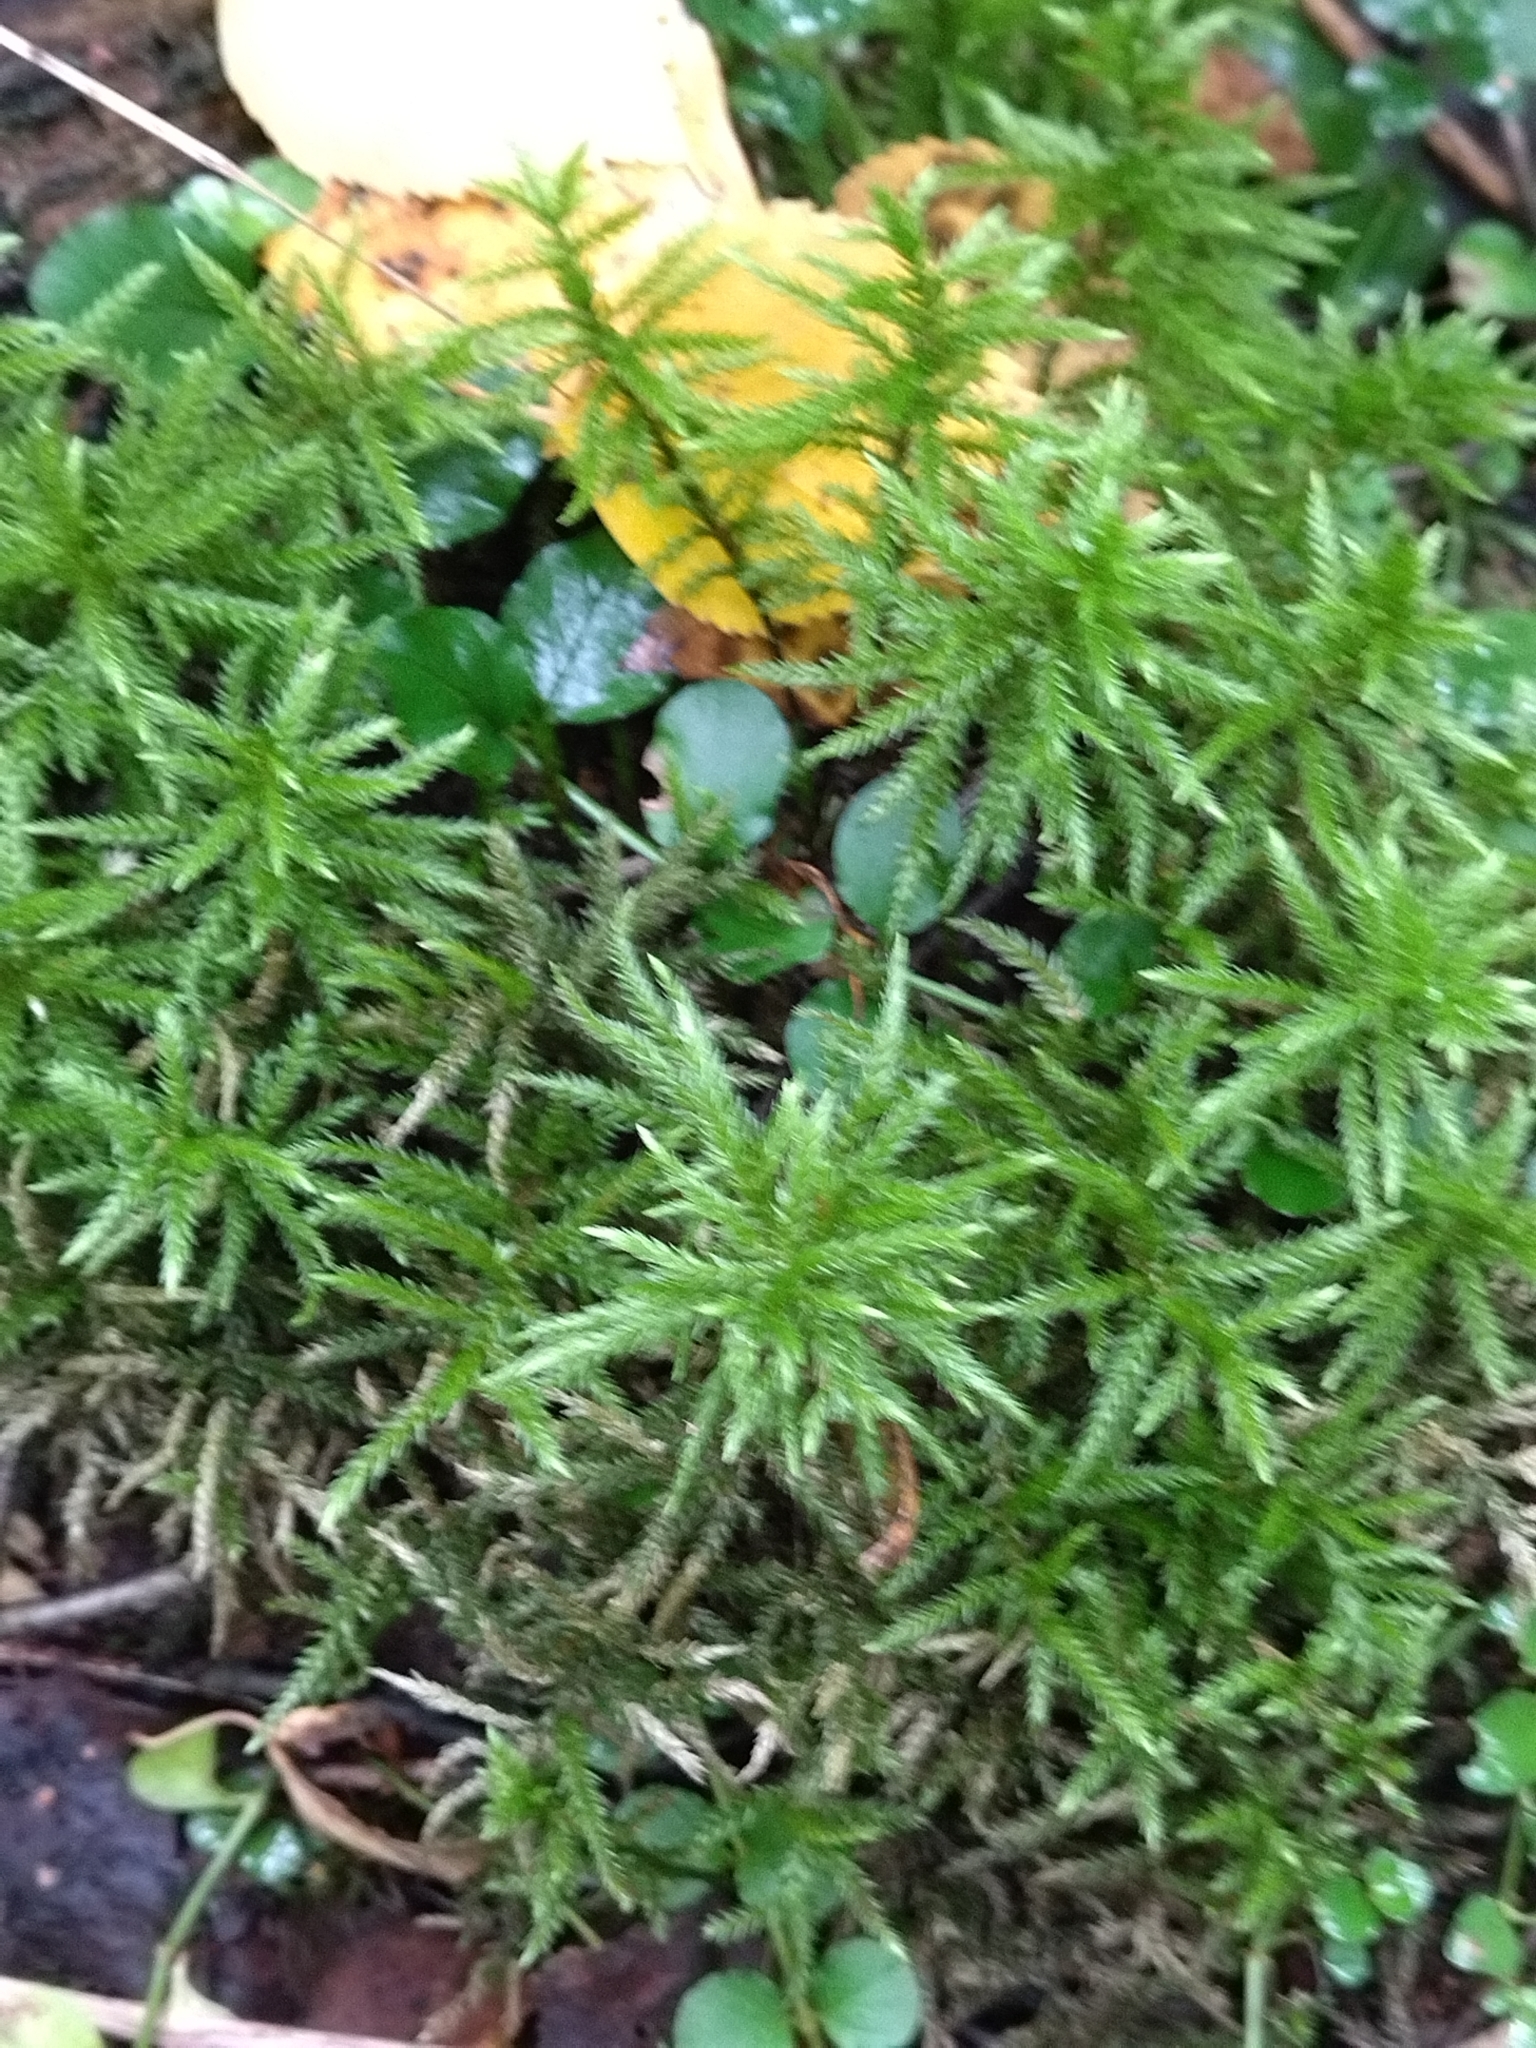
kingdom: Plantae
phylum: Bryophyta
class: Bryopsida
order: Hypnales
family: Climaciaceae
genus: Climacium
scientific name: Climacium dendroides
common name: Northern tree moss
